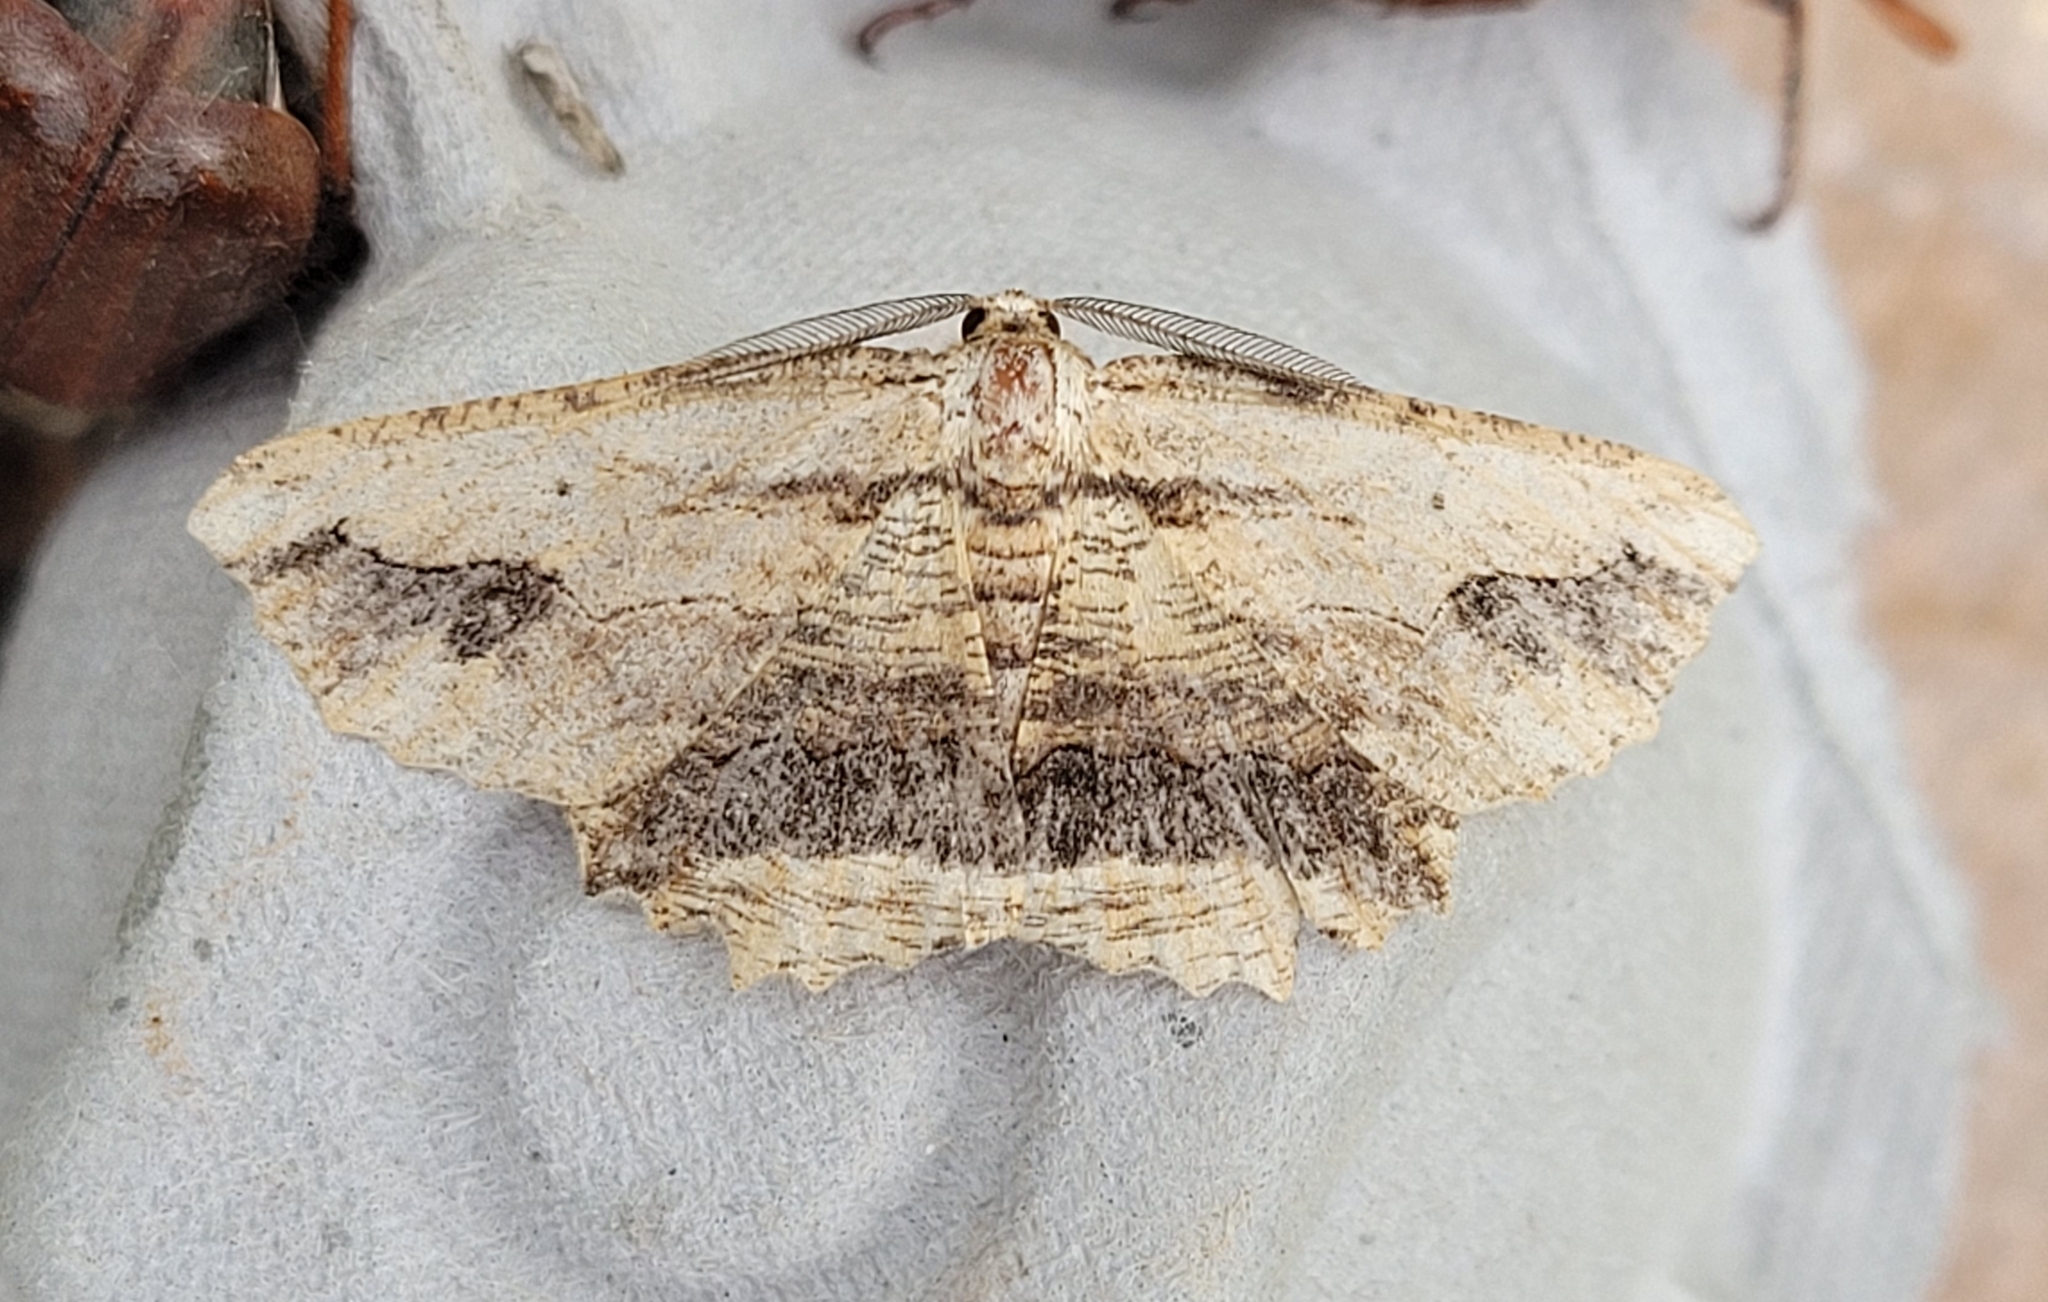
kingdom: Animalia
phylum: Arthropoda
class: Insecta
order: Lepidoptera
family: Geometridae
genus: Menophra
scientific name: Menophra abruptaria
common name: Waved umber
